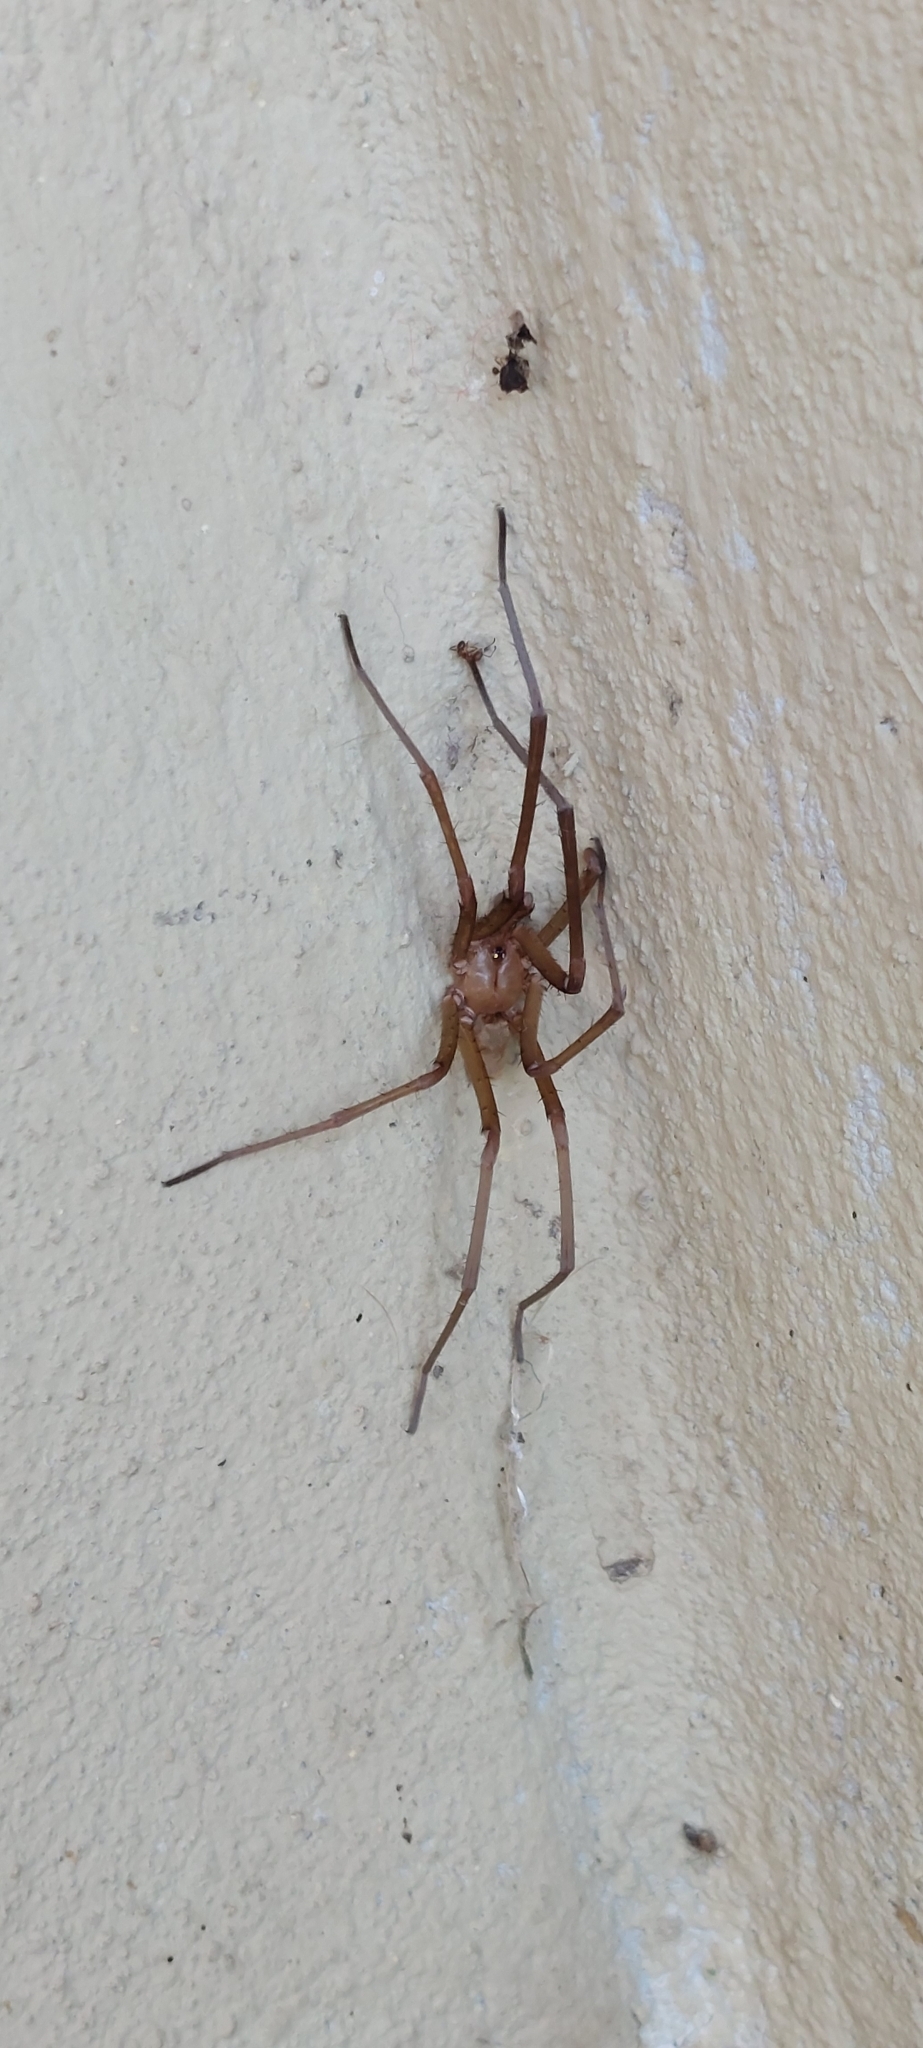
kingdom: Animalia
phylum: Arthropoda
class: Arachnida
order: Araneae
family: Filistatidae
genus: Kukulcania
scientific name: Kukulcania hibernalis
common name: Crevice weaver
